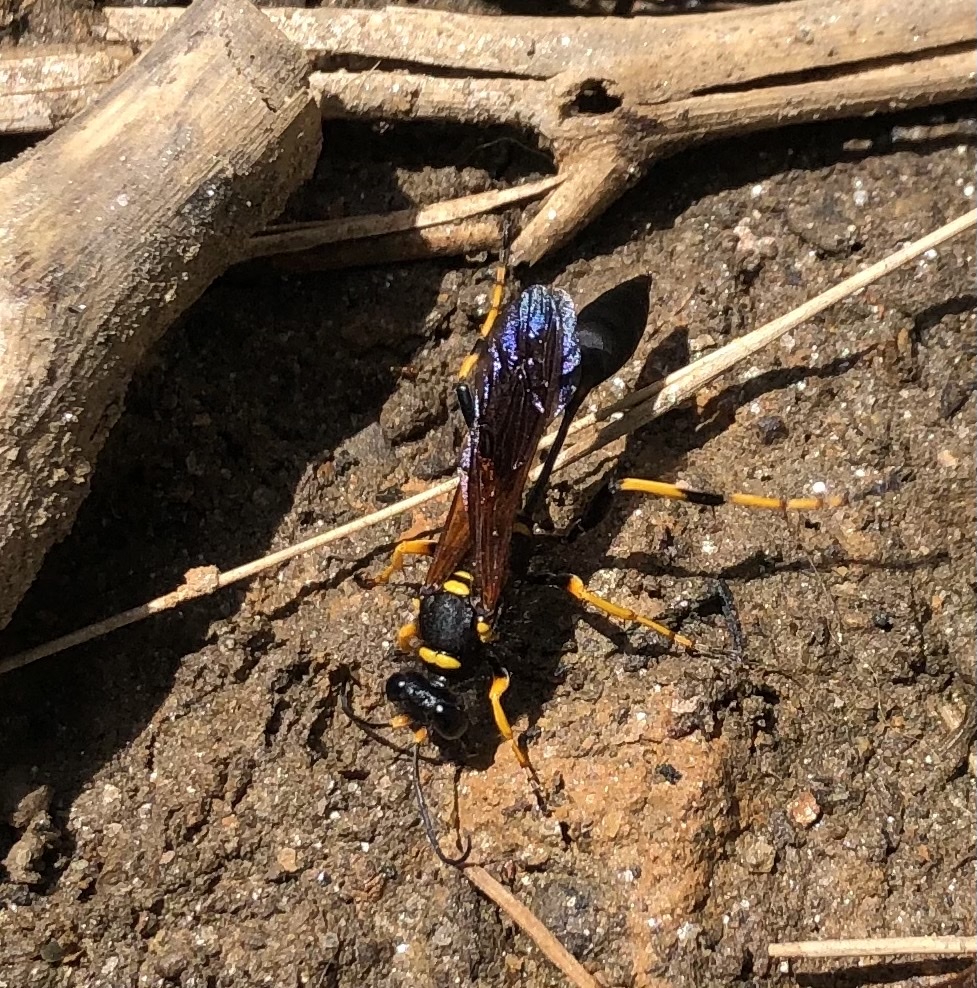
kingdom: Animalia
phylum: Arthropoda
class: Insecta
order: Hymenoptera
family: Sphecidae
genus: Sceliphron
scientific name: Sceliphron caementarium
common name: Mud dauber
